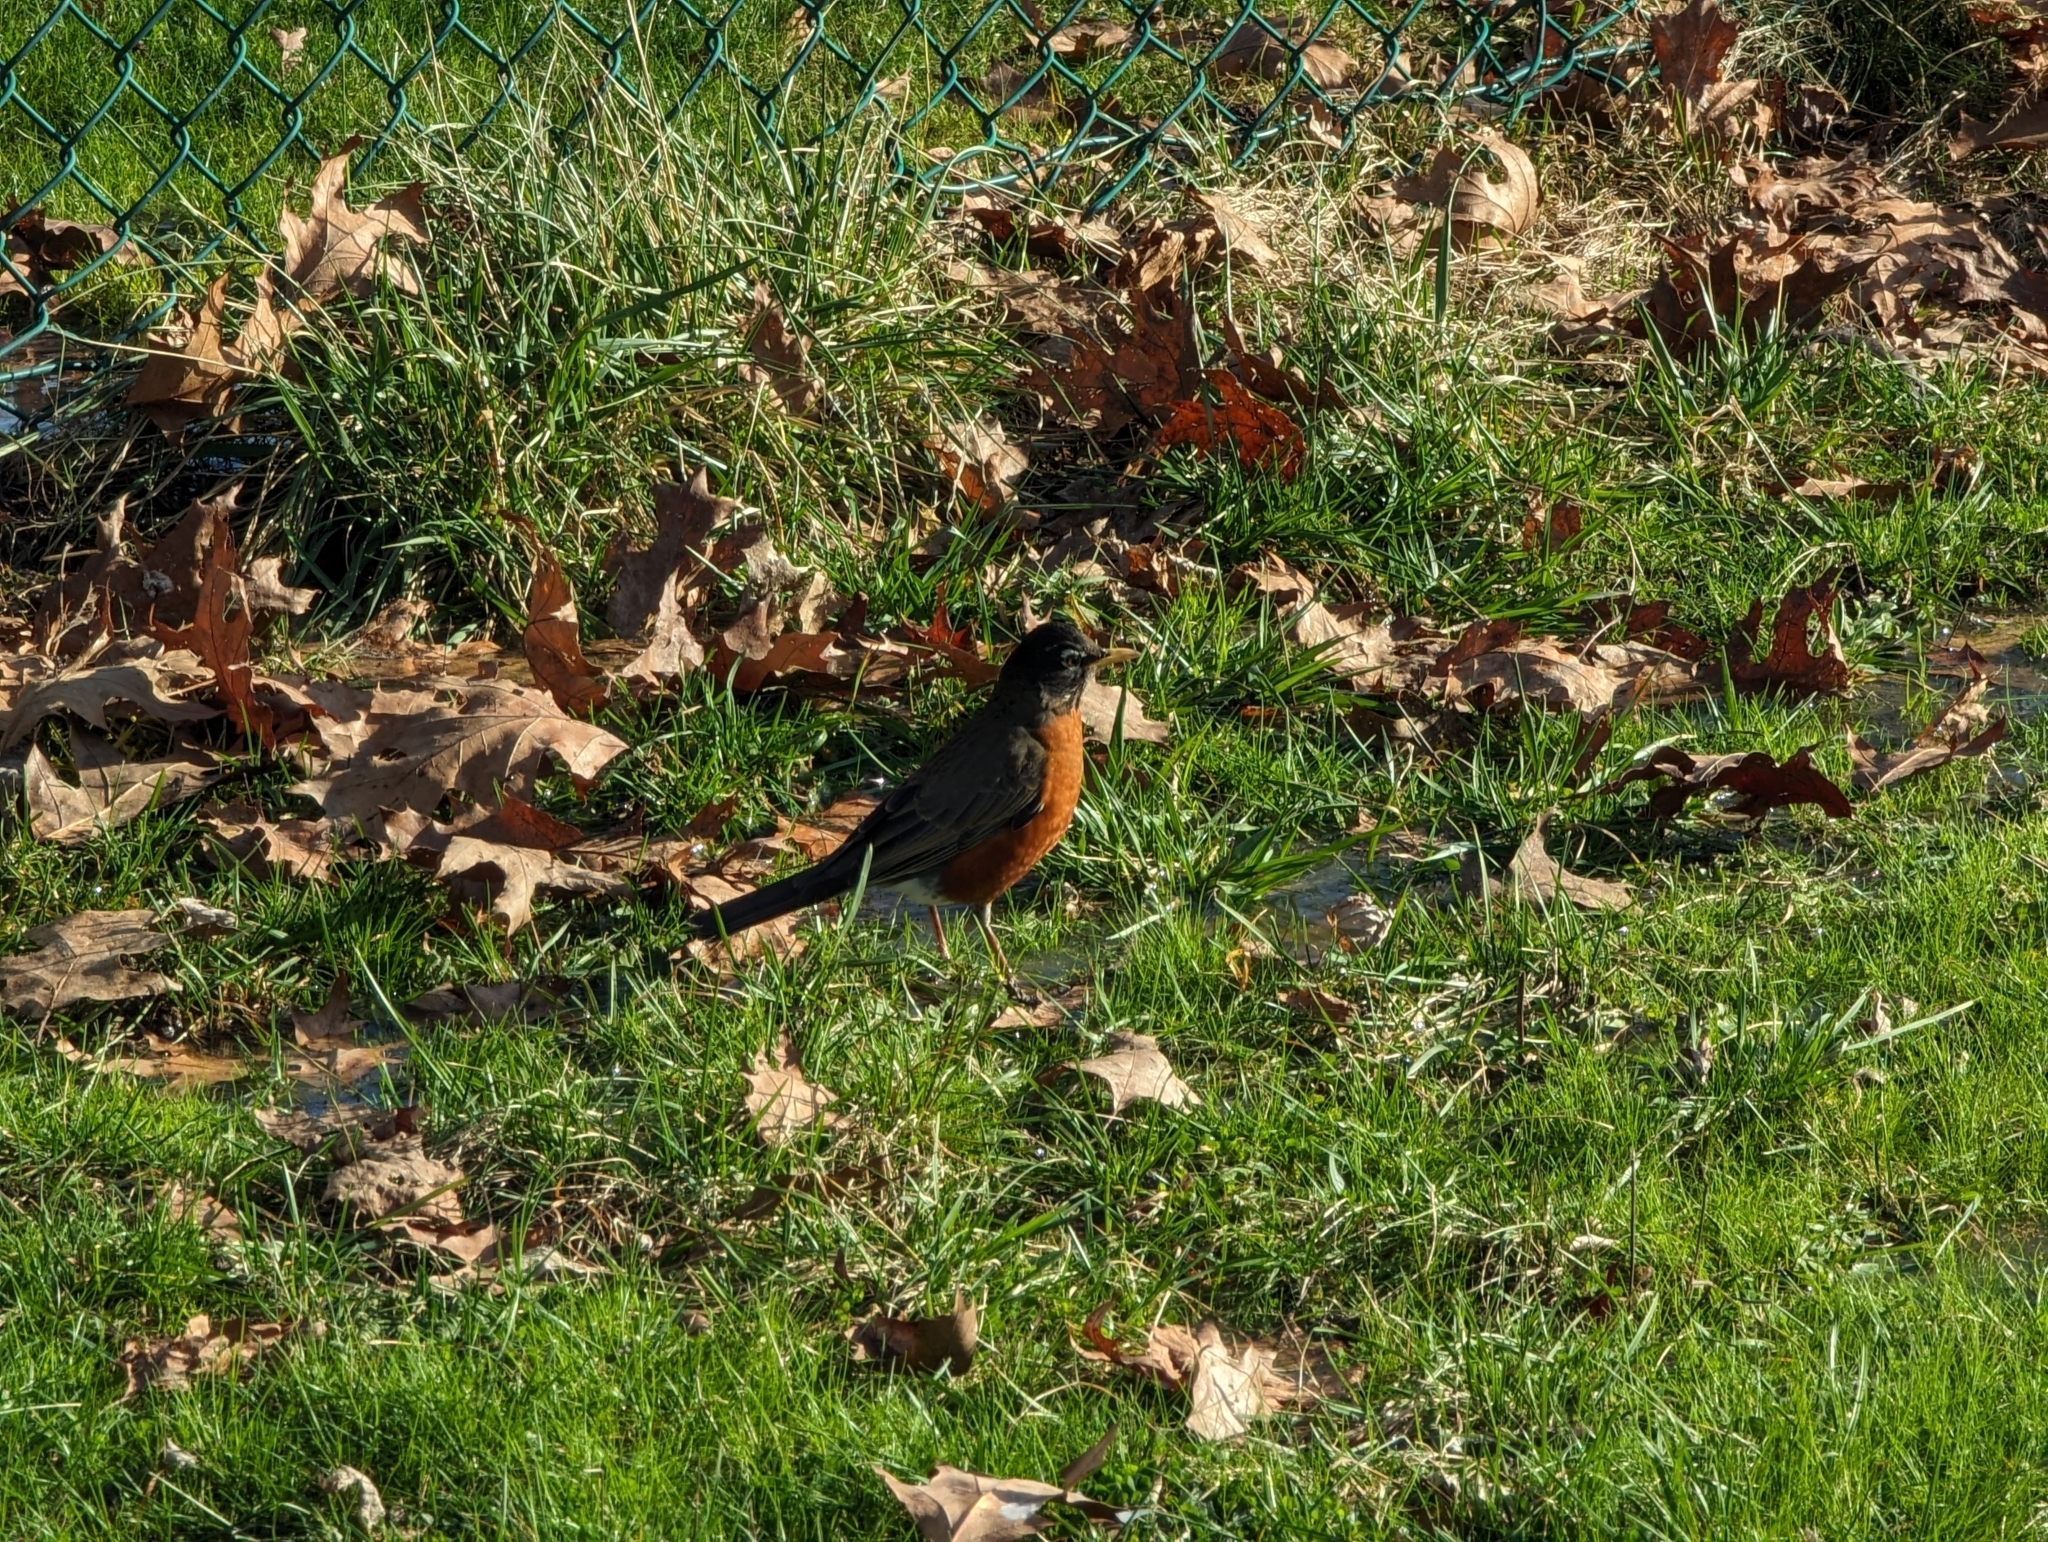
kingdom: Animalia
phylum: Chordata
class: Aves
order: Passeriformes
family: Turdidae
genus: Turdus
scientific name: Turdus migratorius
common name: American robin
